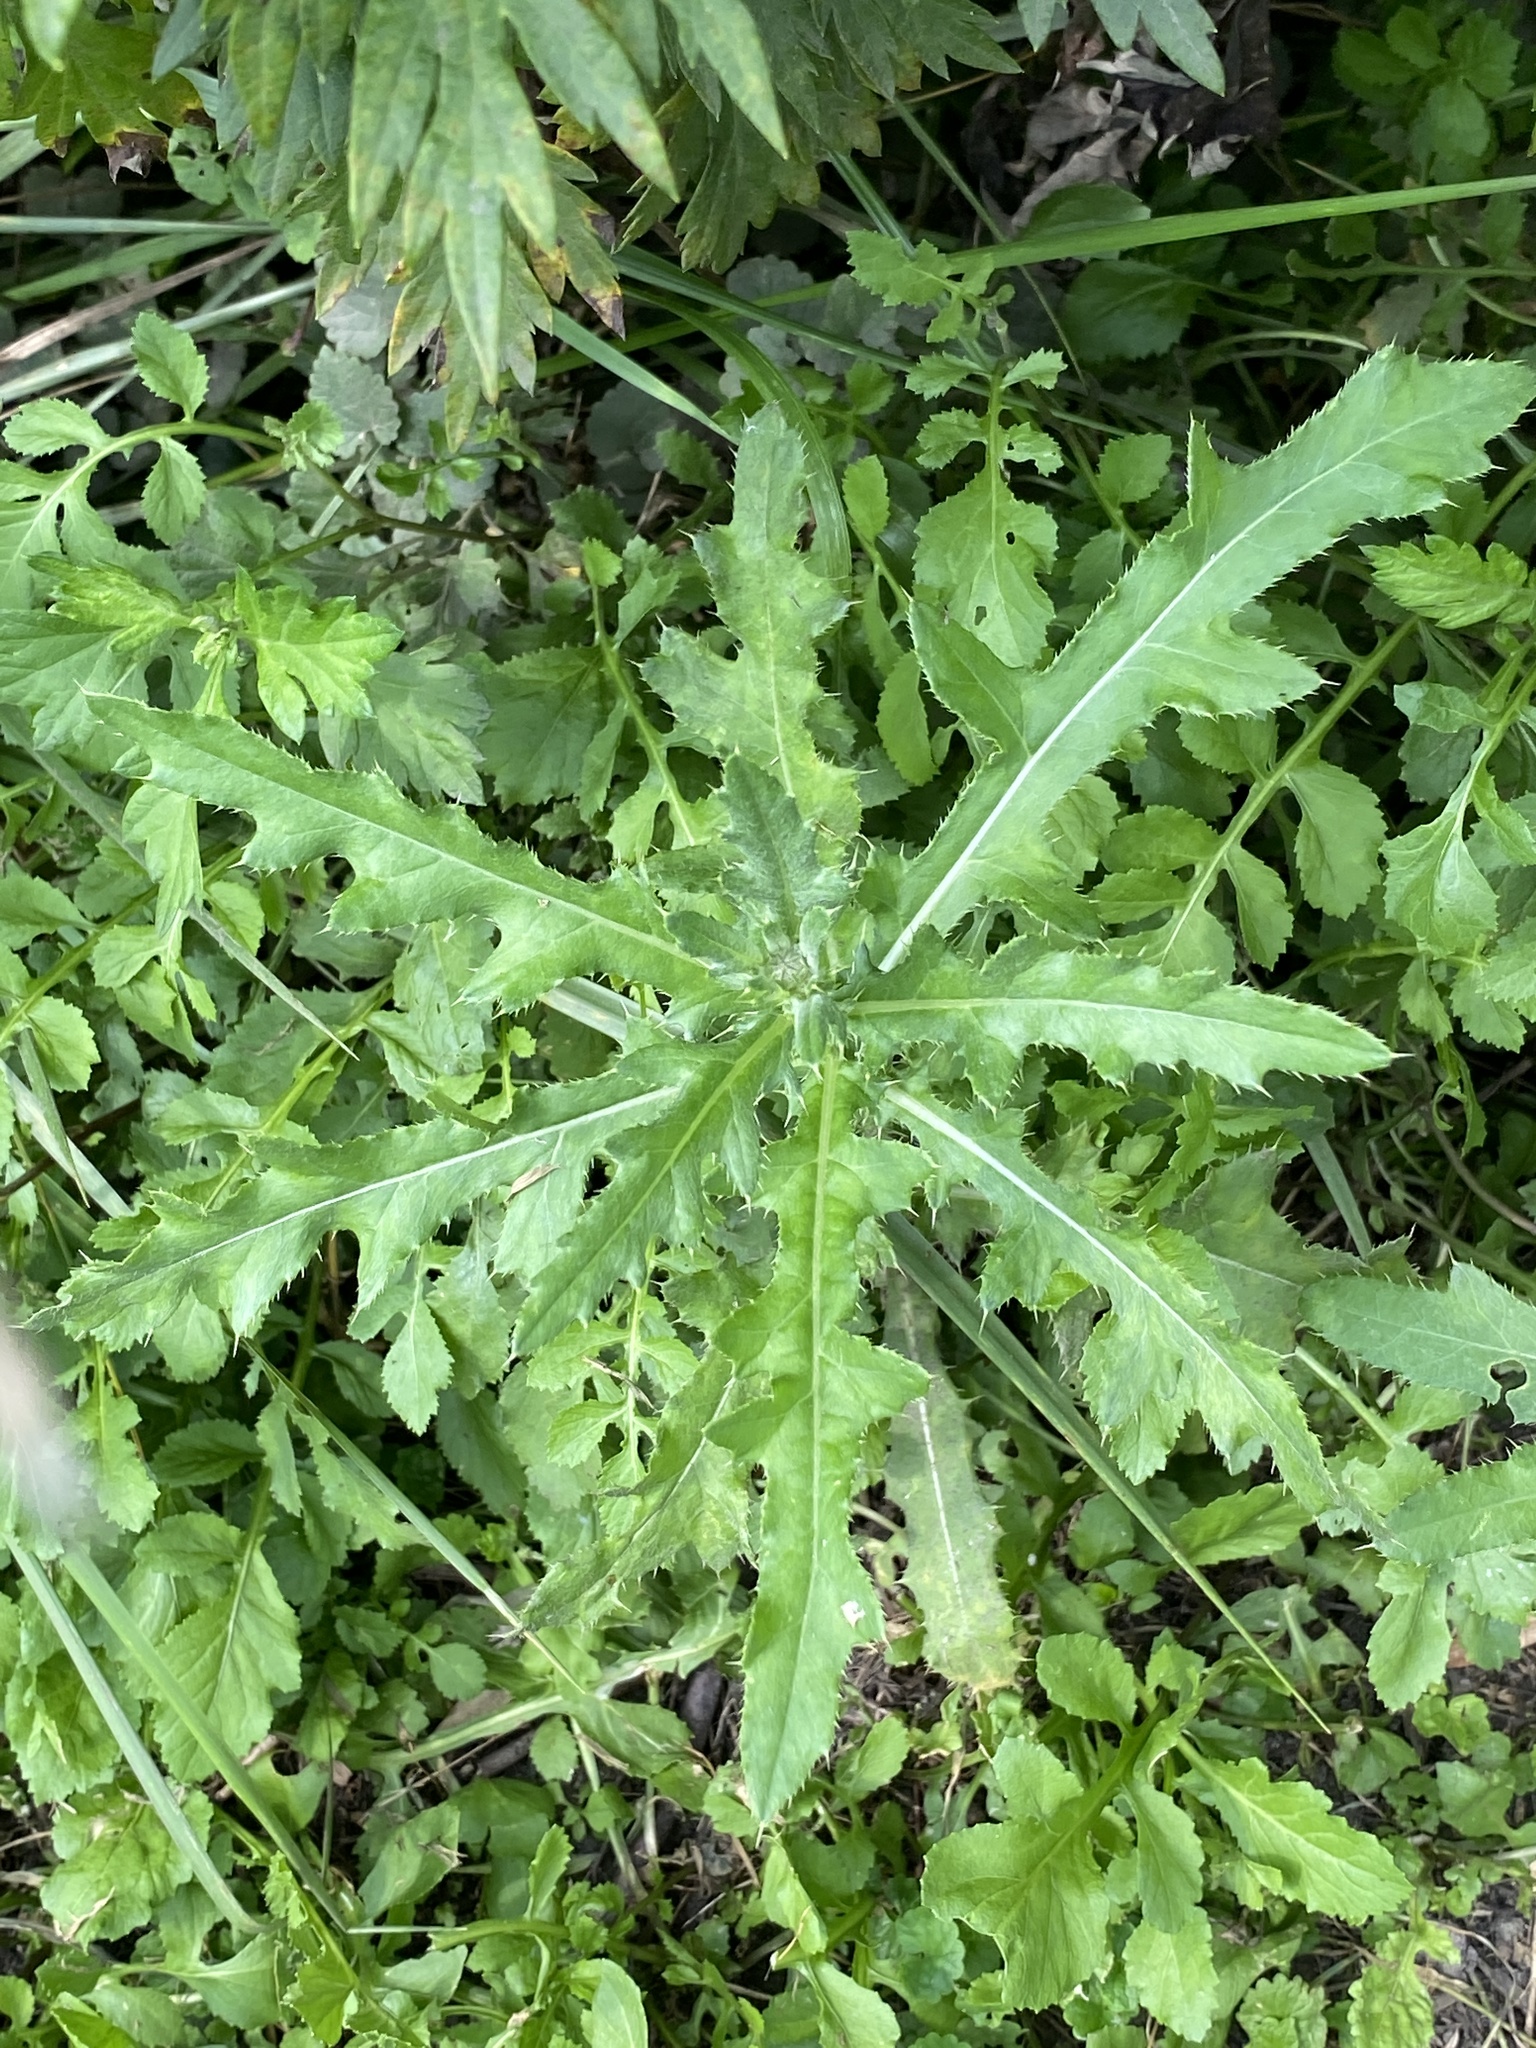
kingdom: Plantae
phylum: Tracheophyta
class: Magnoliopsida
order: Asterales
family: Asteraceae
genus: Cirsium
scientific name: Cirsium arvense
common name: Creeping thistle
